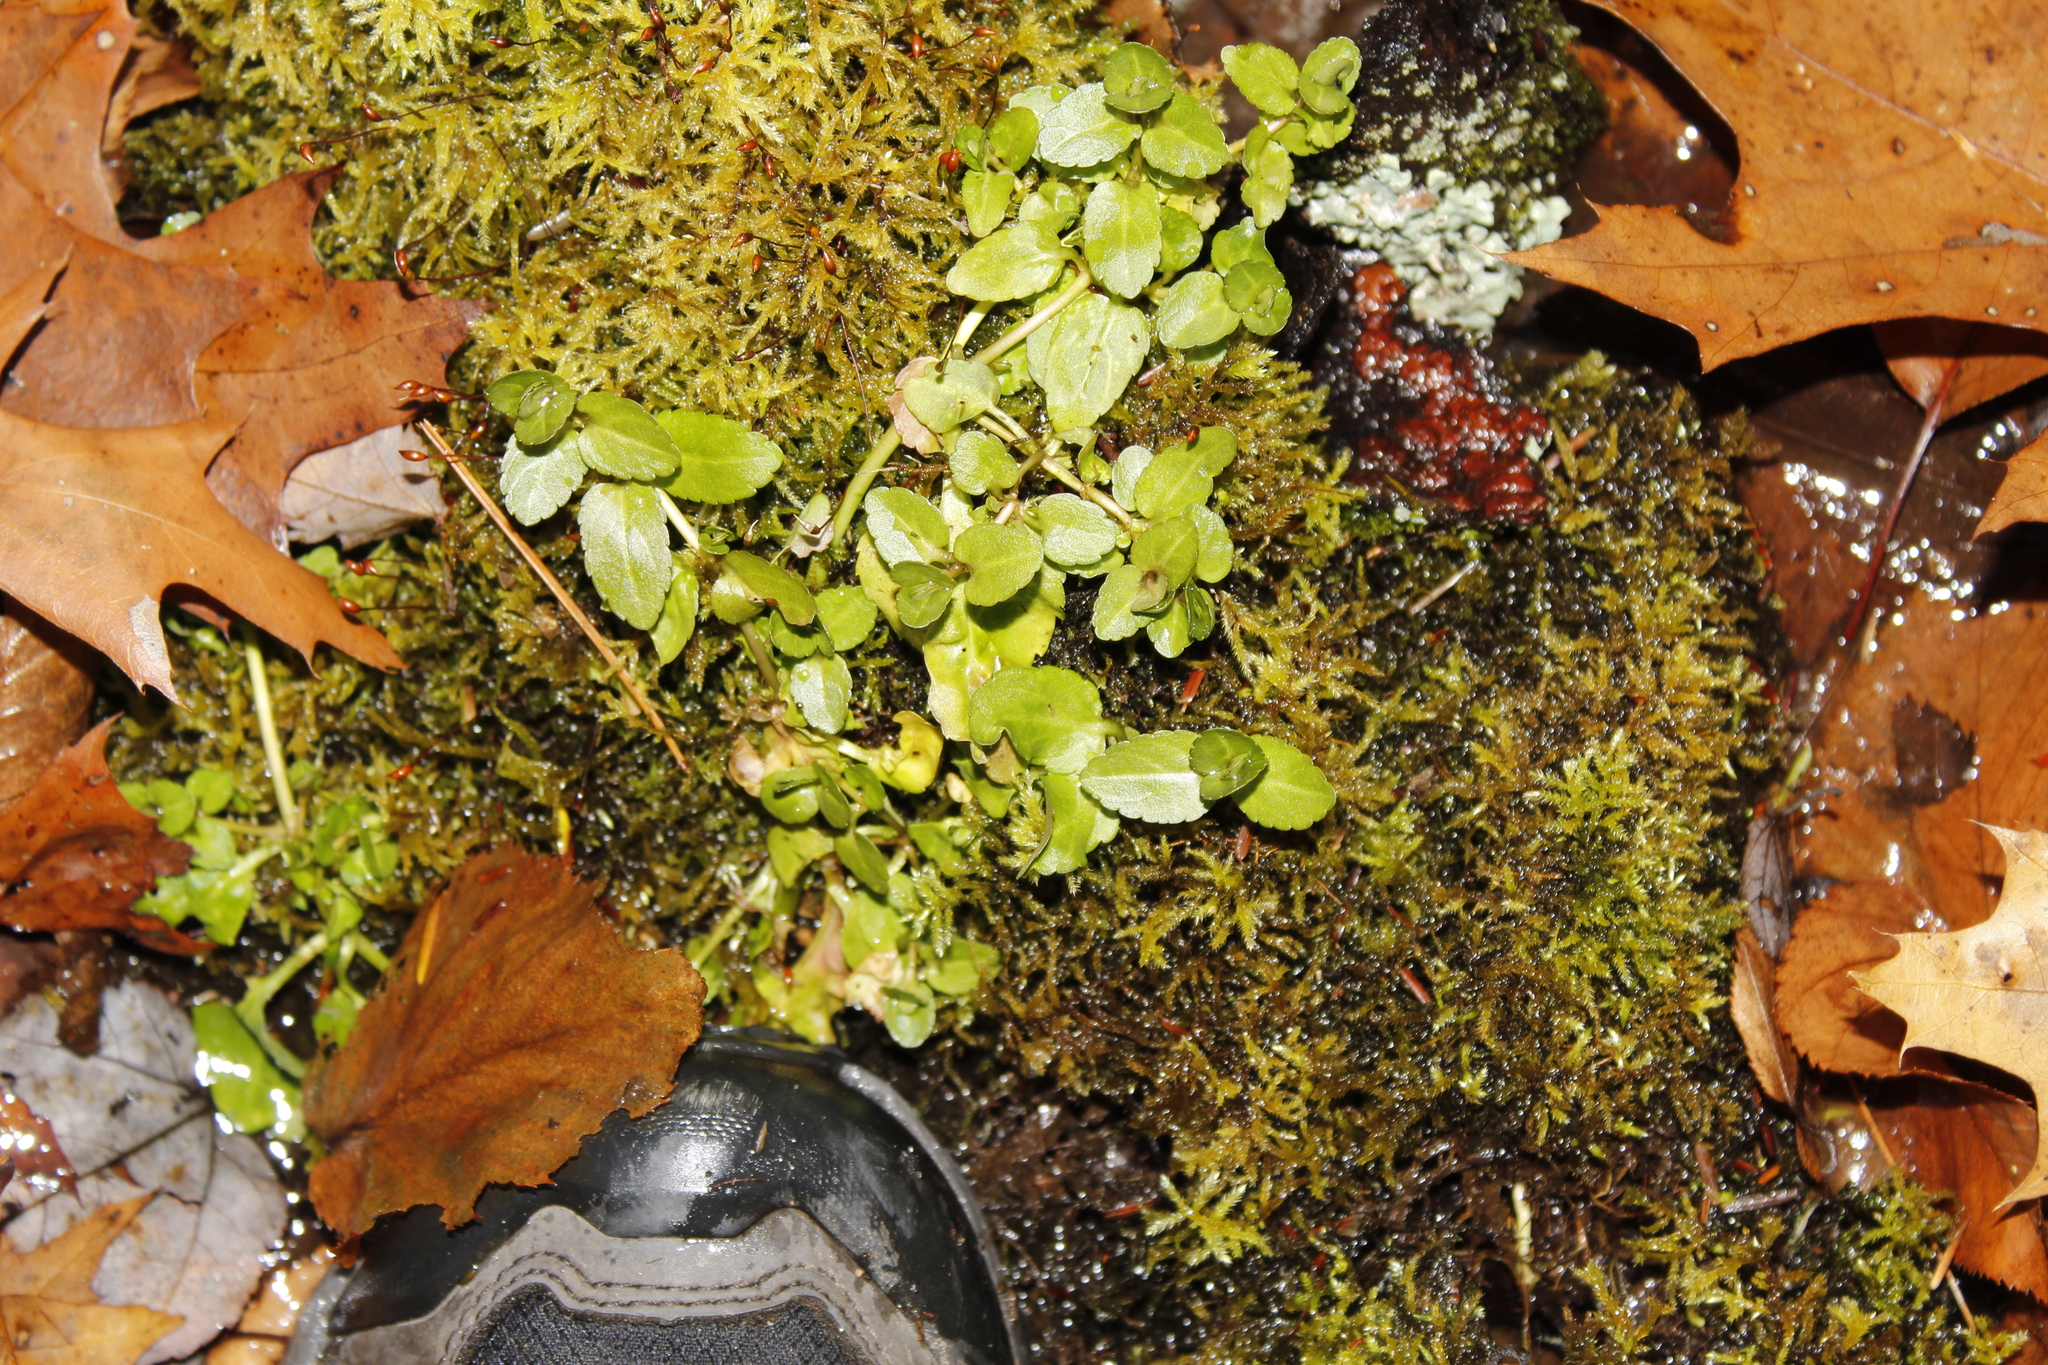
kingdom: Plantae
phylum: Tracheophyta
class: Magnoliopsida
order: Lamiales
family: Plantaginaceae
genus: Veronica
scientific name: Veronica americana
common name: American brooklime
